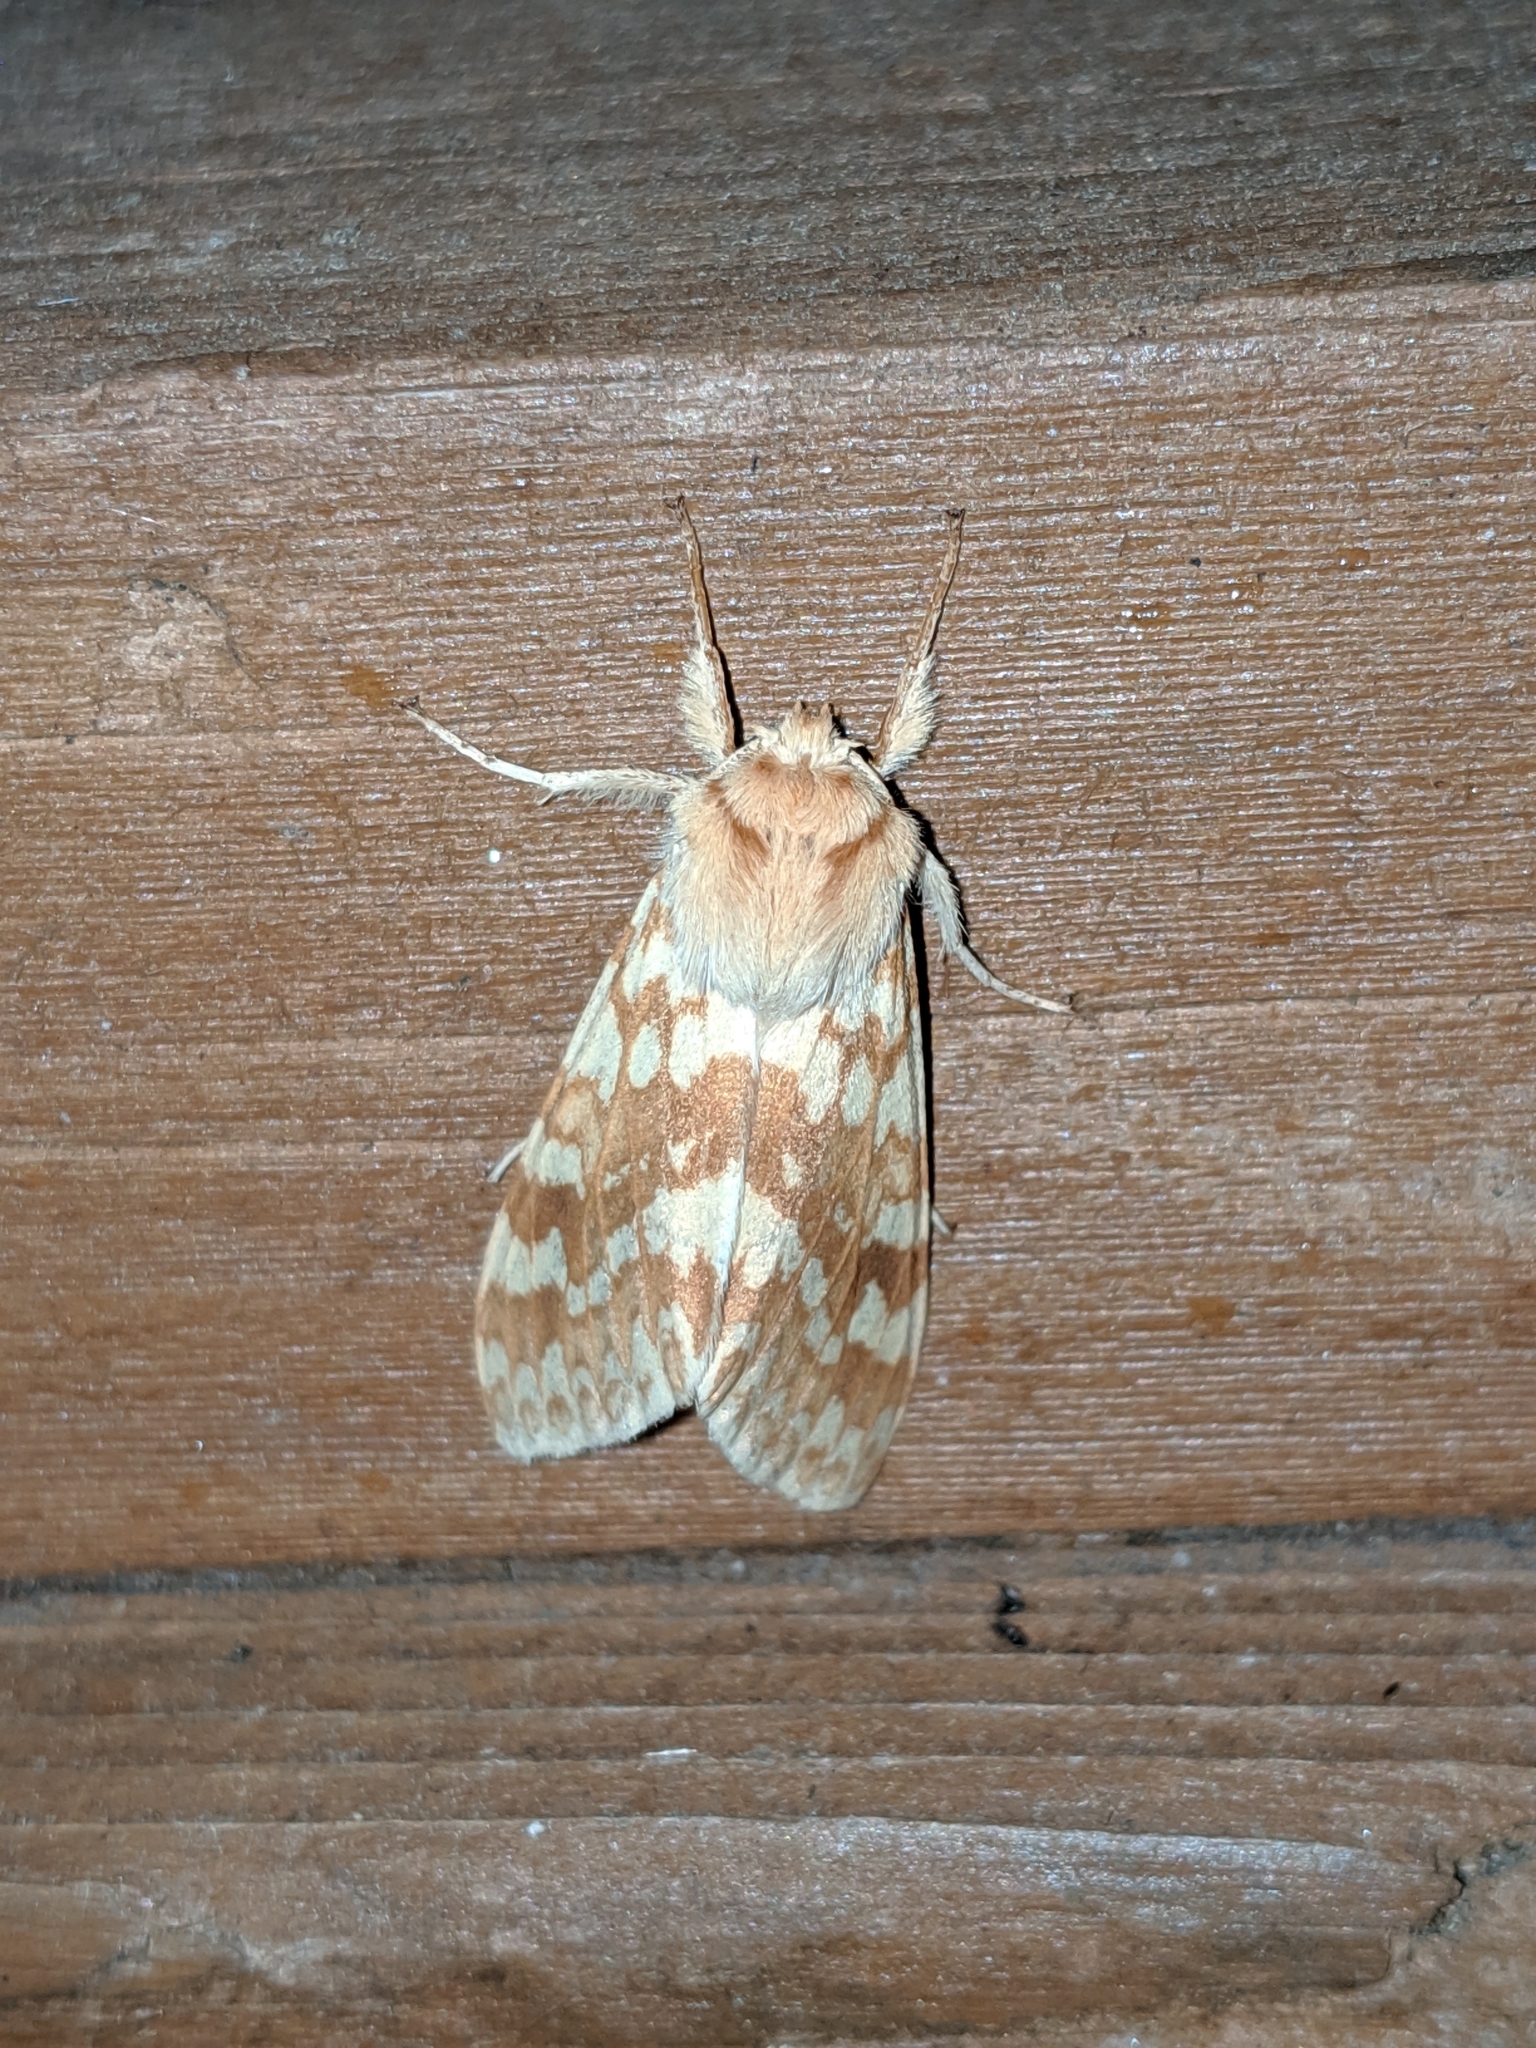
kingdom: Animalia
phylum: Arthropoda
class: Insecta
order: Lepidoptera
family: Erebidae
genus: Lophocampa
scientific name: Lophocampa maculata
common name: Spotted tussock moth
